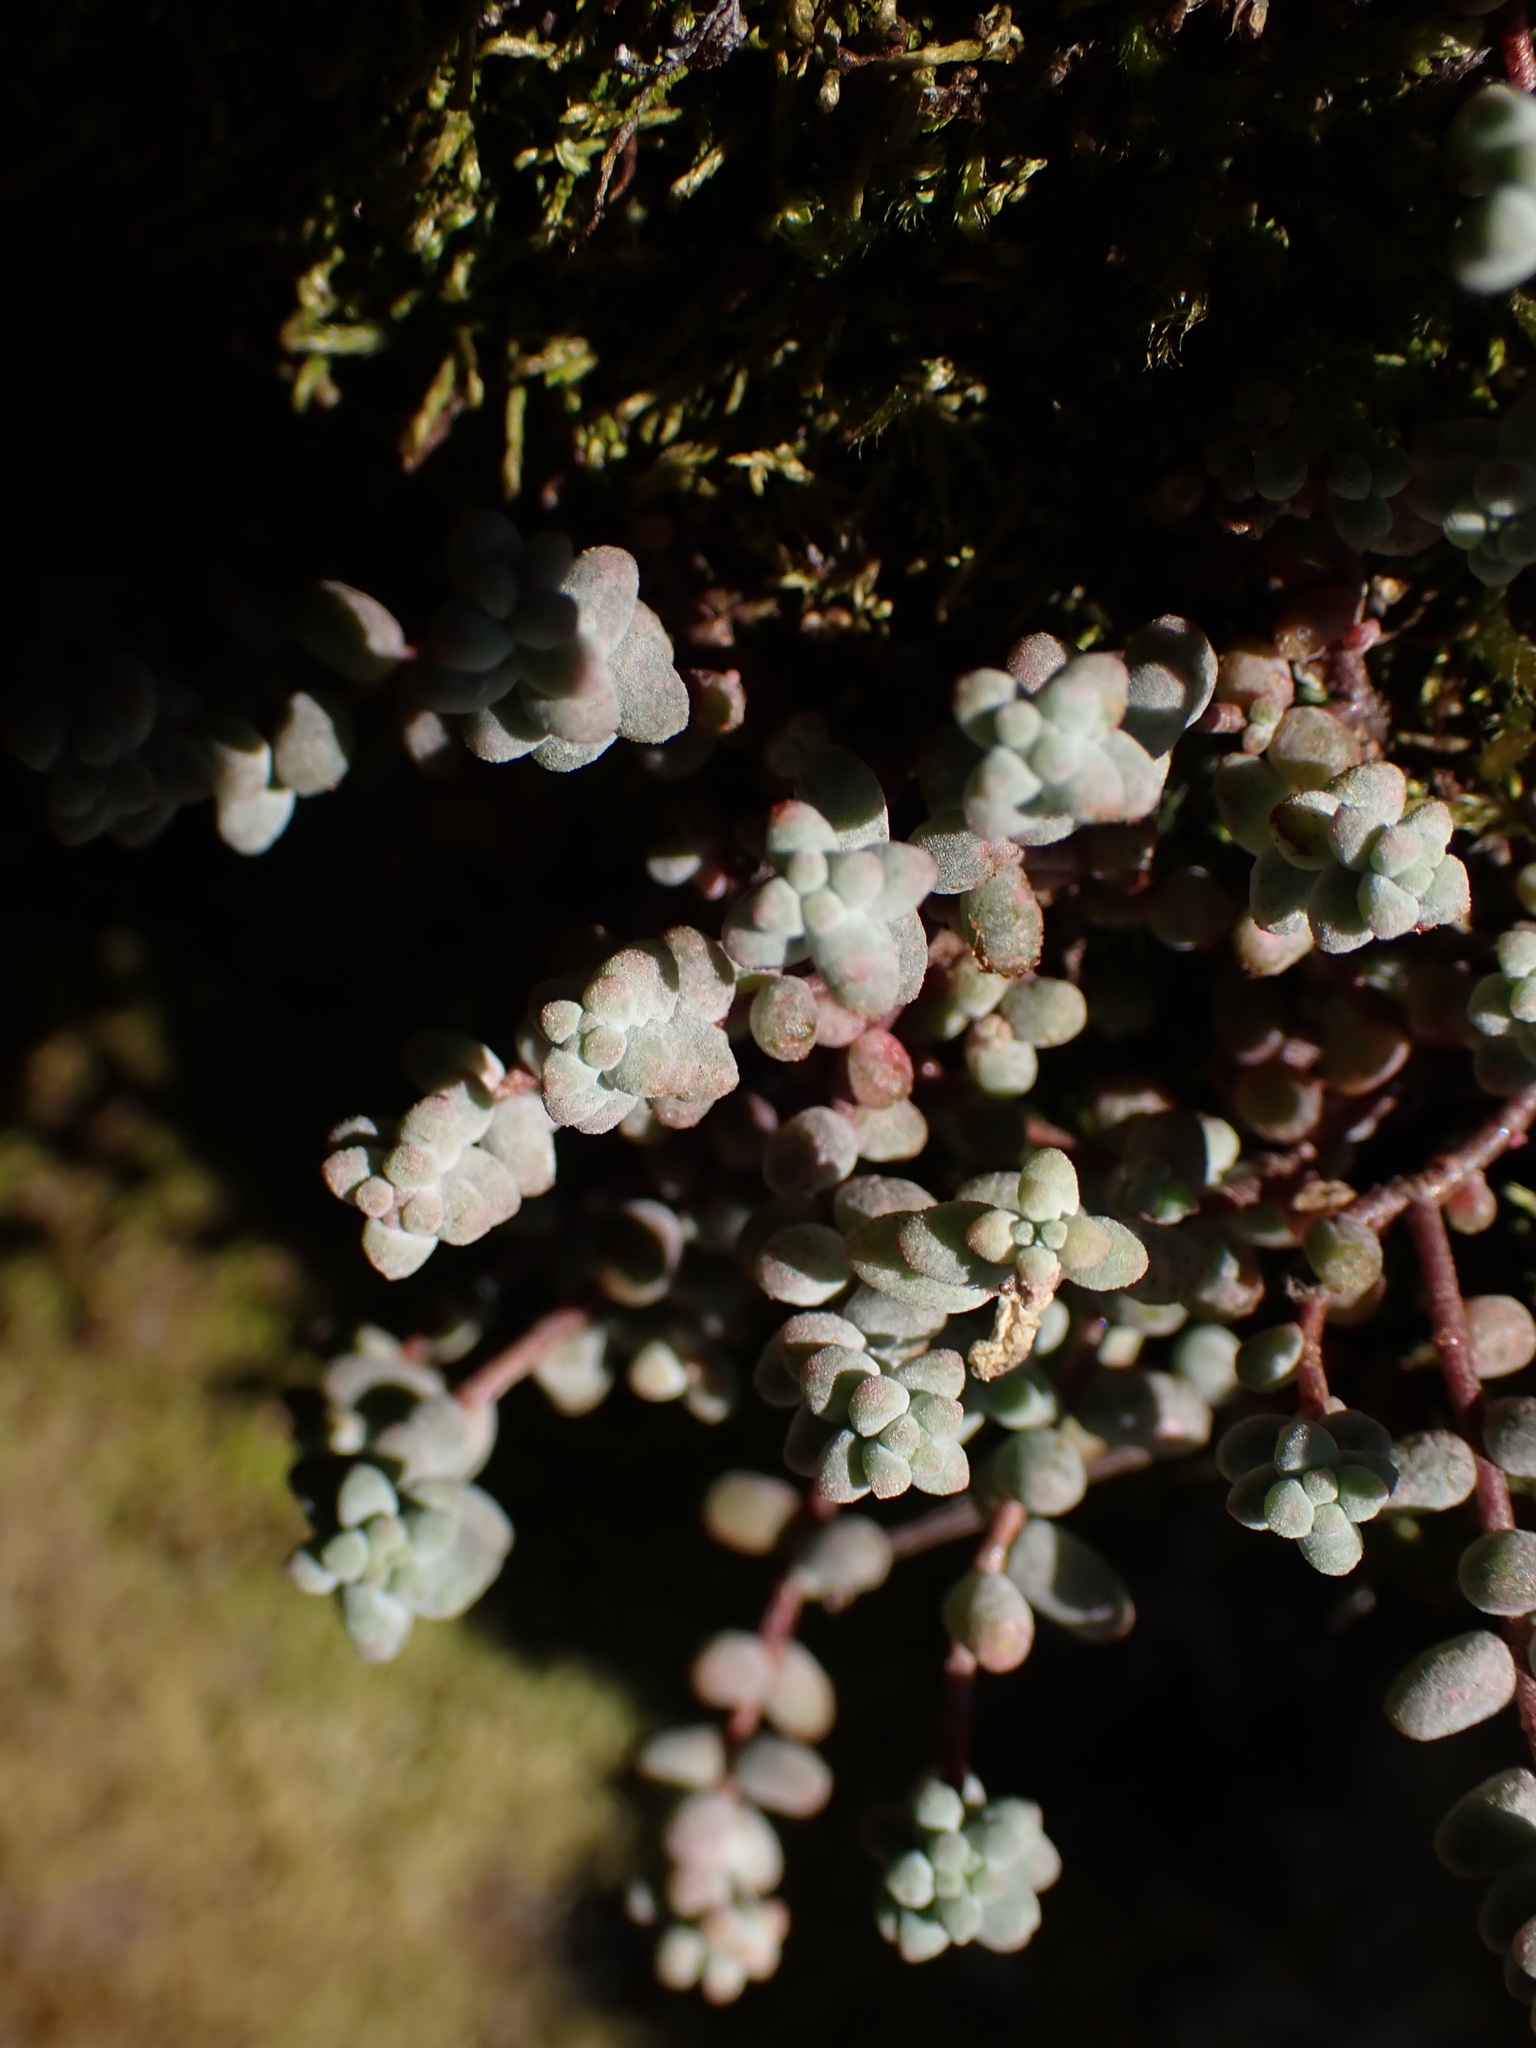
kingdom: Plantae
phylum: Tracheophyta
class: Magnoliopsida
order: Saxifragales
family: Crassulaceae
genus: Sedum
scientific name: Sedum brevifolium
